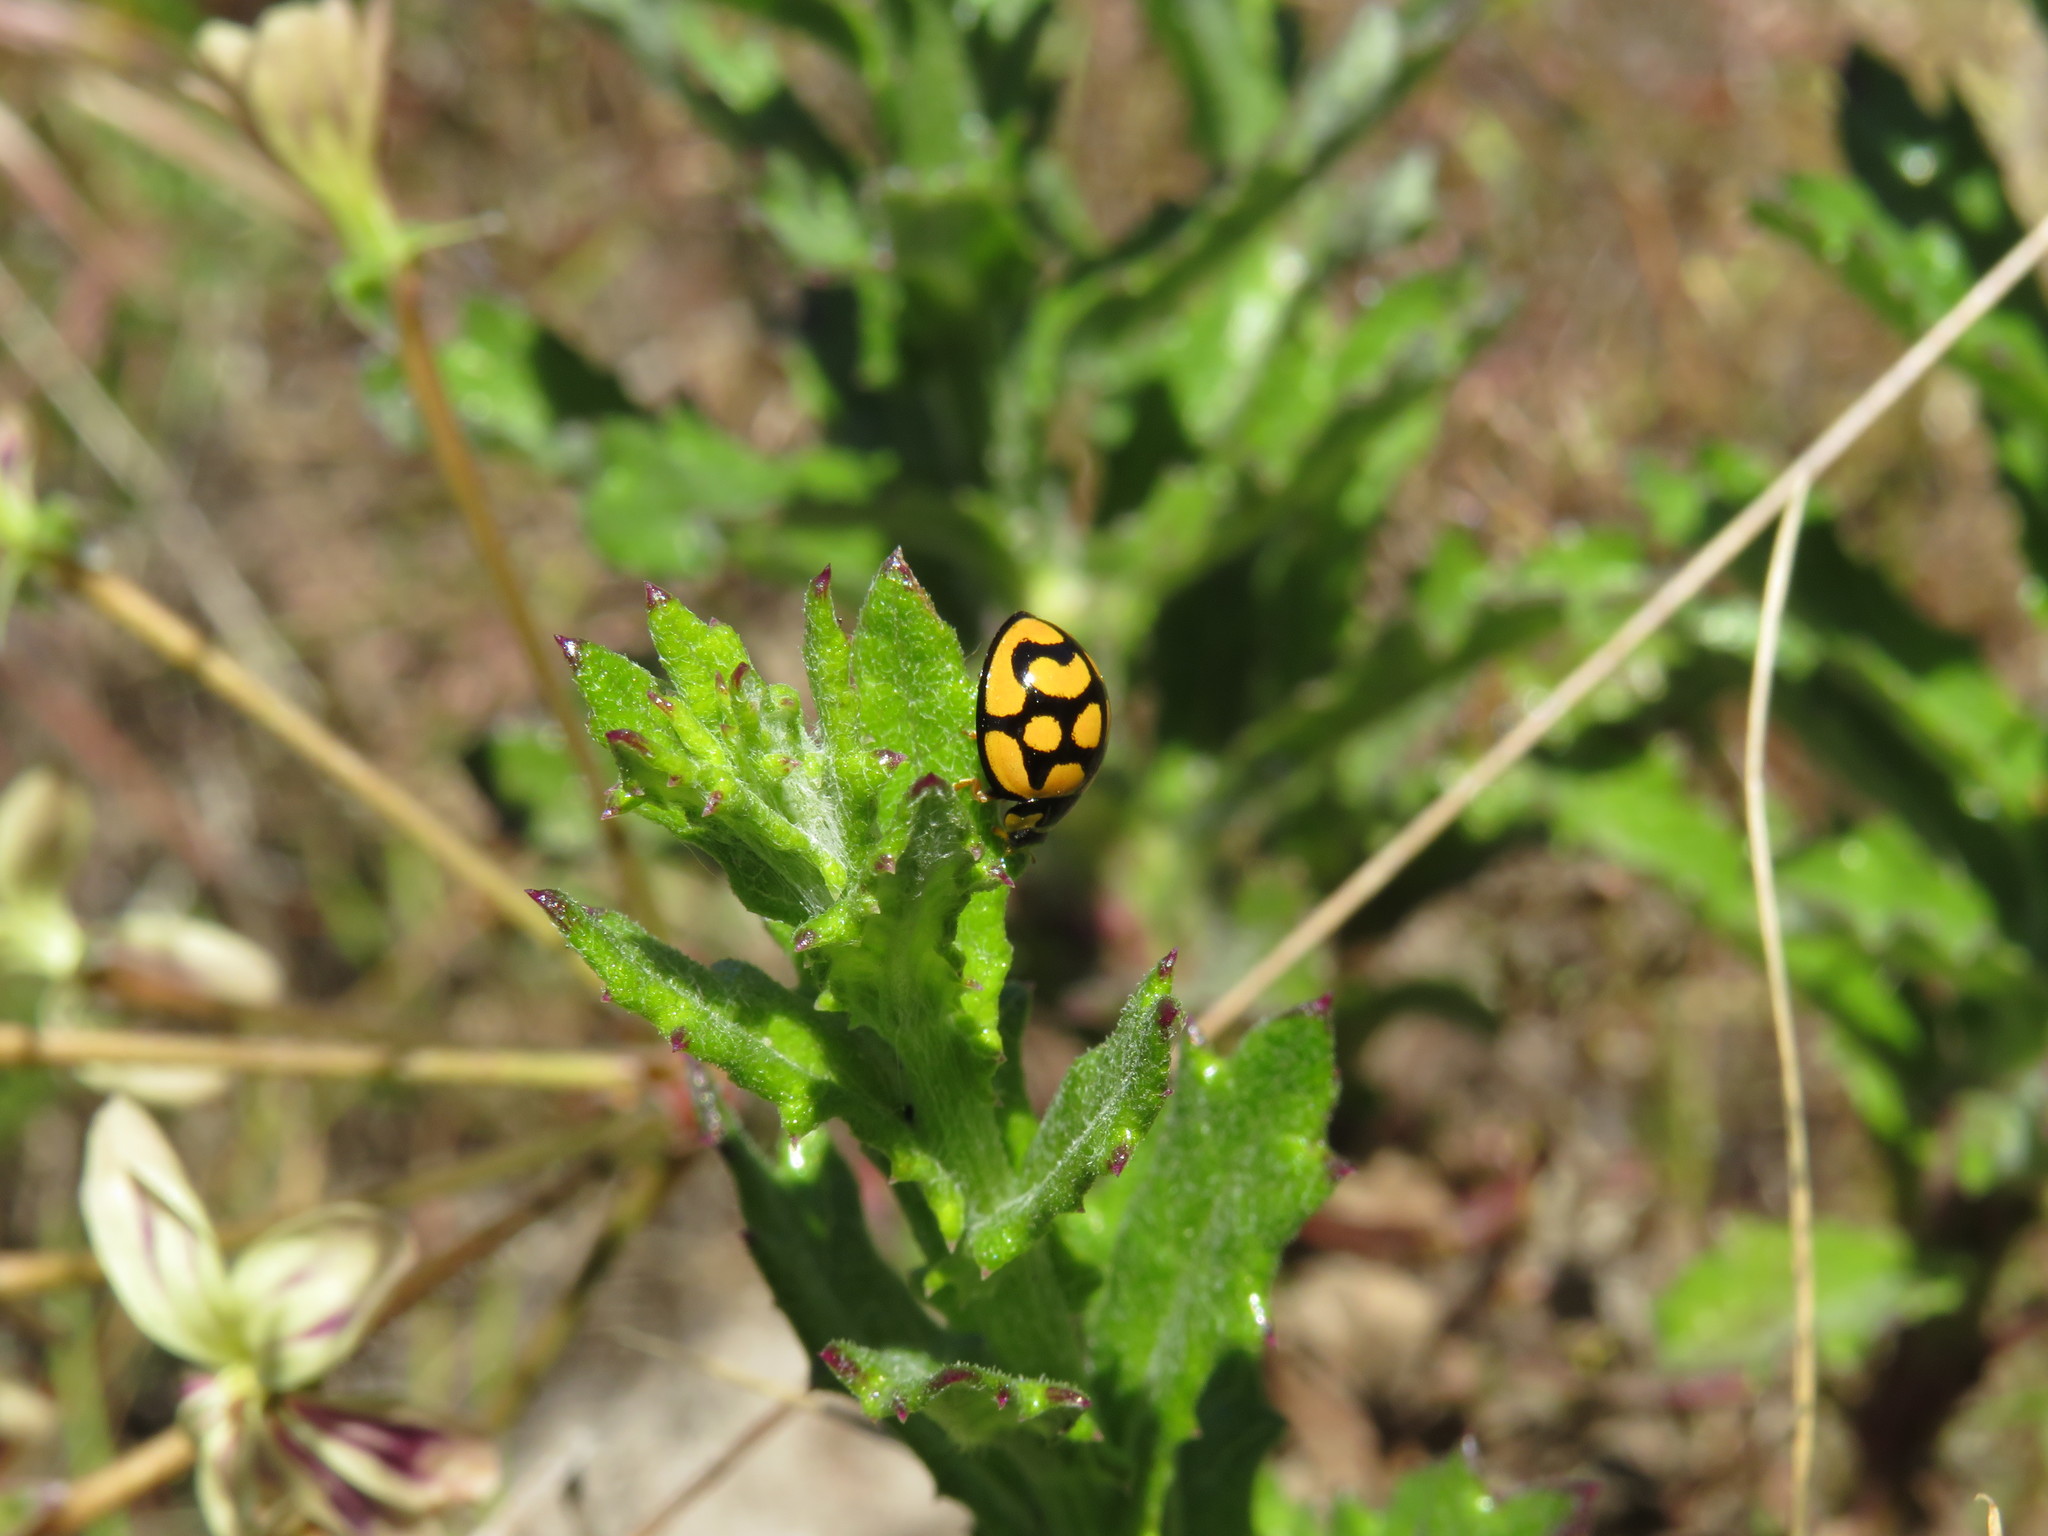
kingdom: Animalia
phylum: Arthropoda
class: Insecta
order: Coleoptera
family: Coccinellidae
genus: Cheilomenes
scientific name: Cheilomenes lunata
